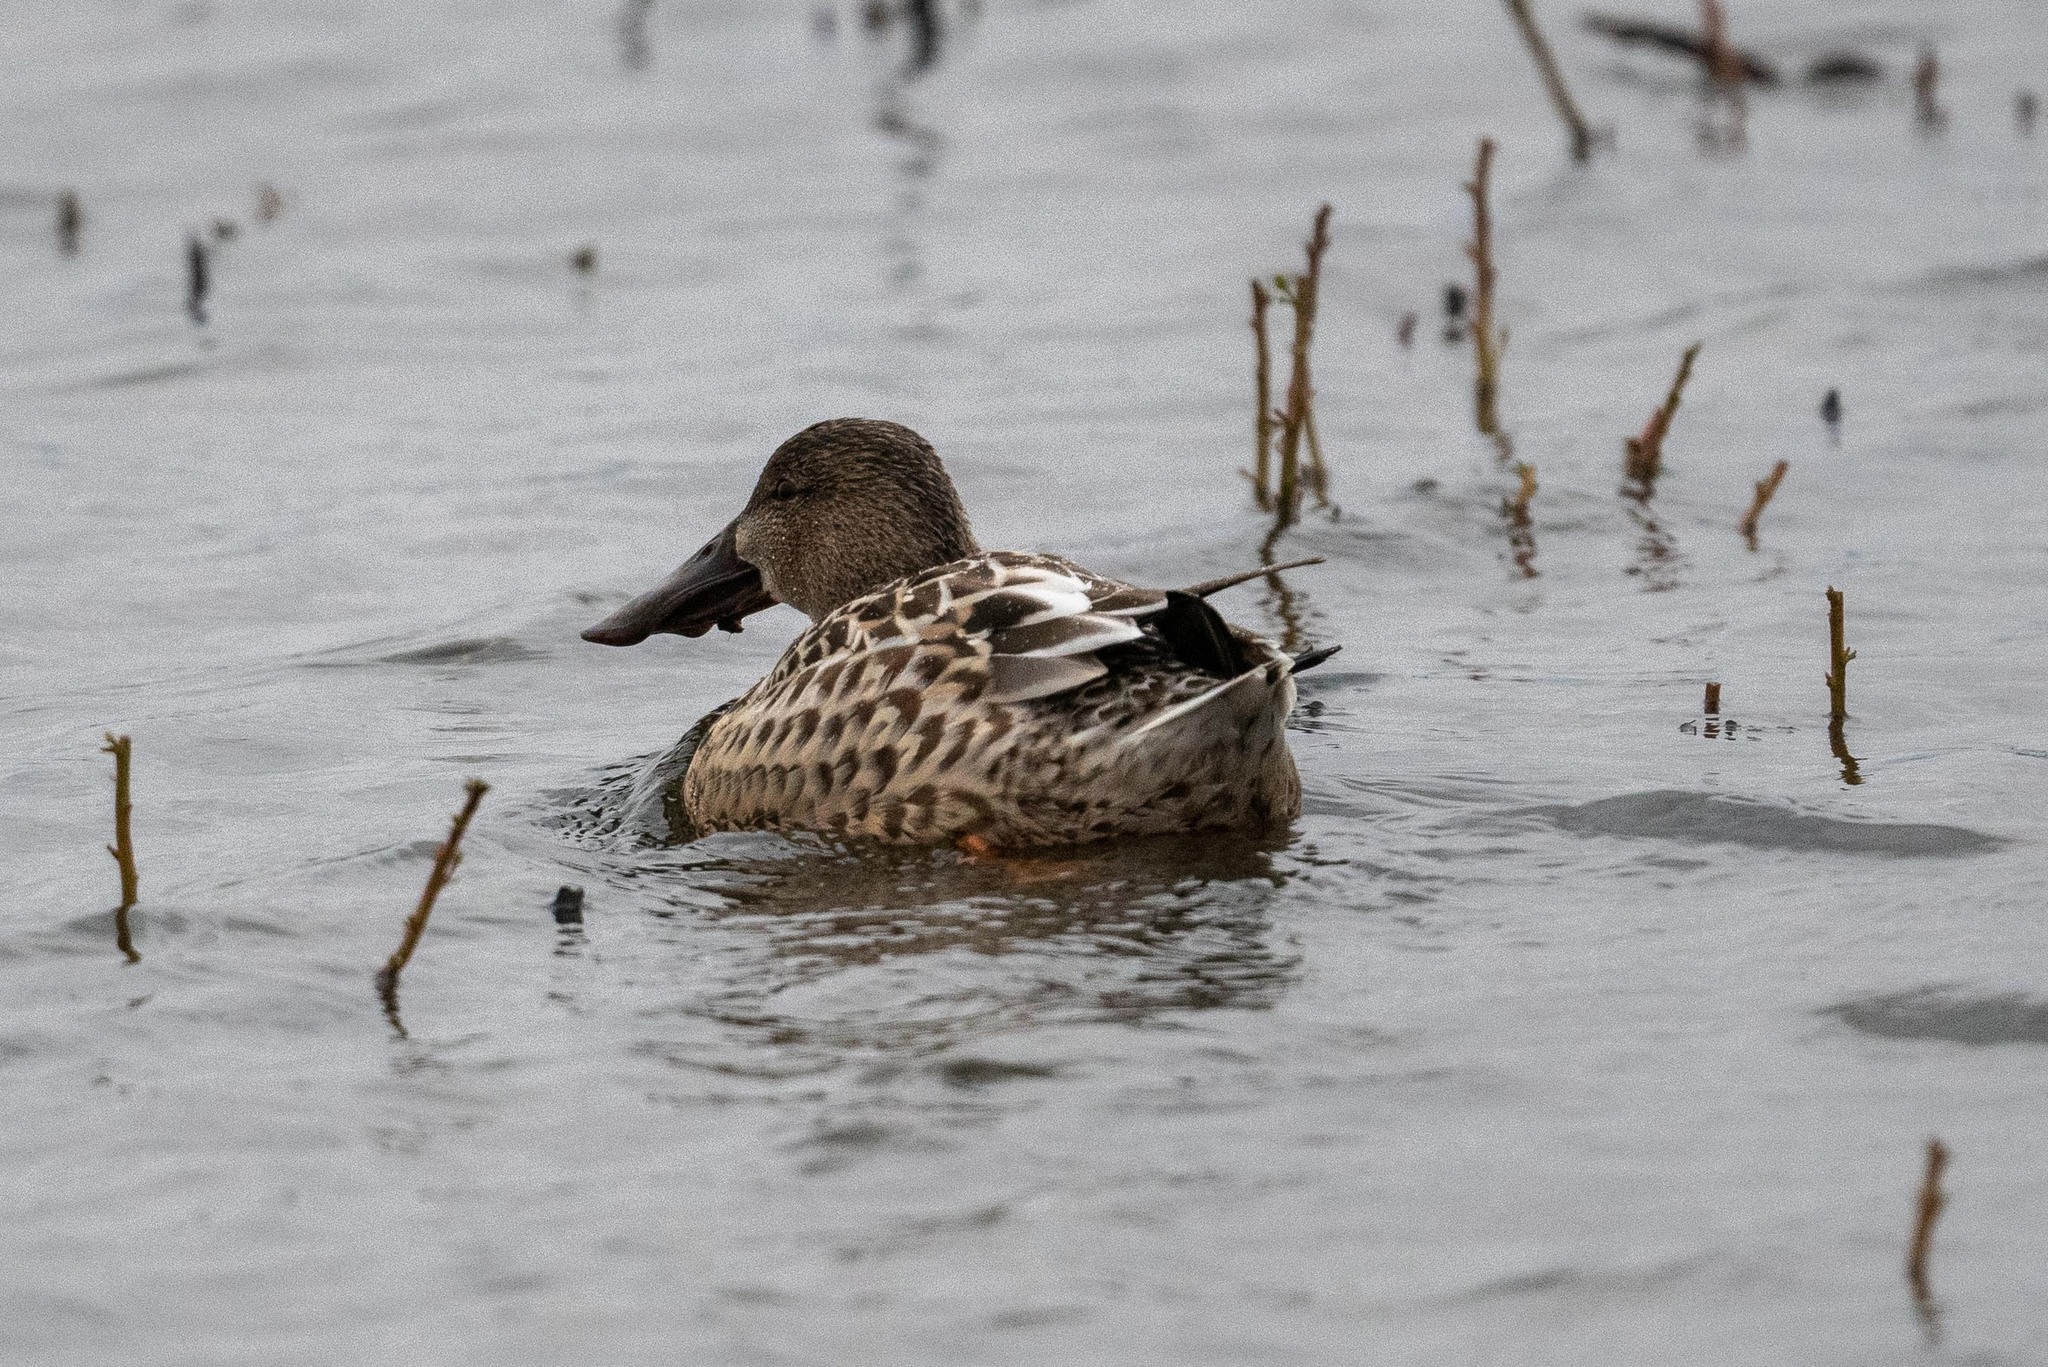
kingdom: Animalia
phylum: Chordata
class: Aves
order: Anseriformes
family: Anatidae
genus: Spatula
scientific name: Spatula clypeata
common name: Northern shoveler
